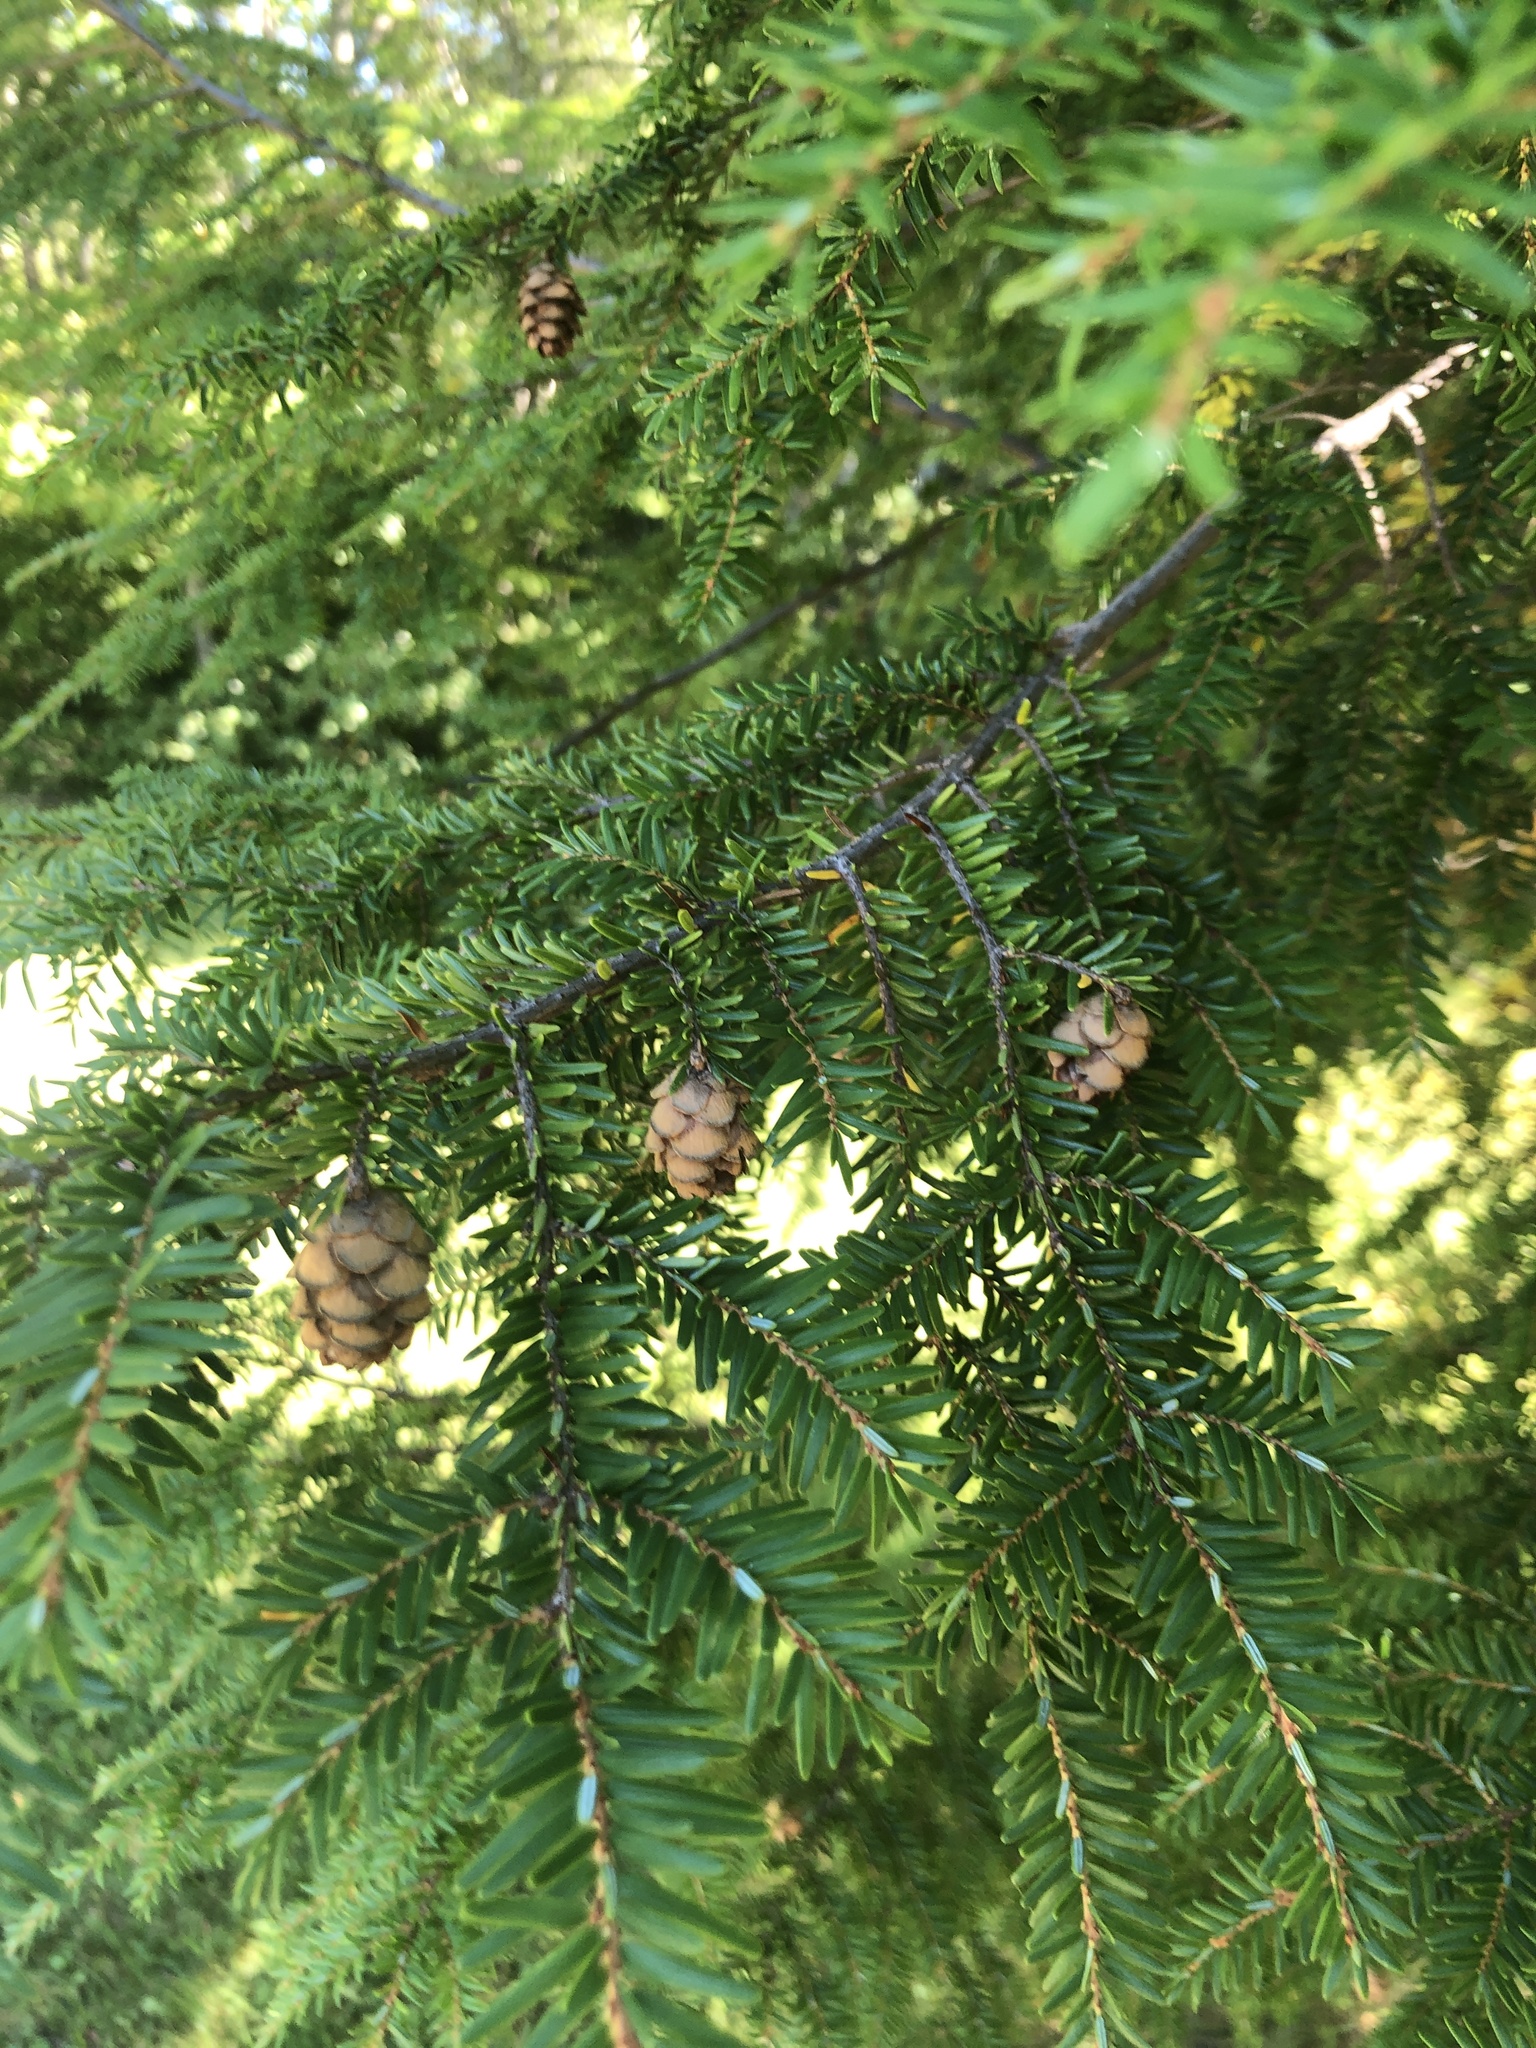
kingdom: Plantae
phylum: Tracheophyta
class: Pinopsida
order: Pinales
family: Pinaceae
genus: Tsuga
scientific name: Tsuga canadensis
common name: Eastern hemlock
